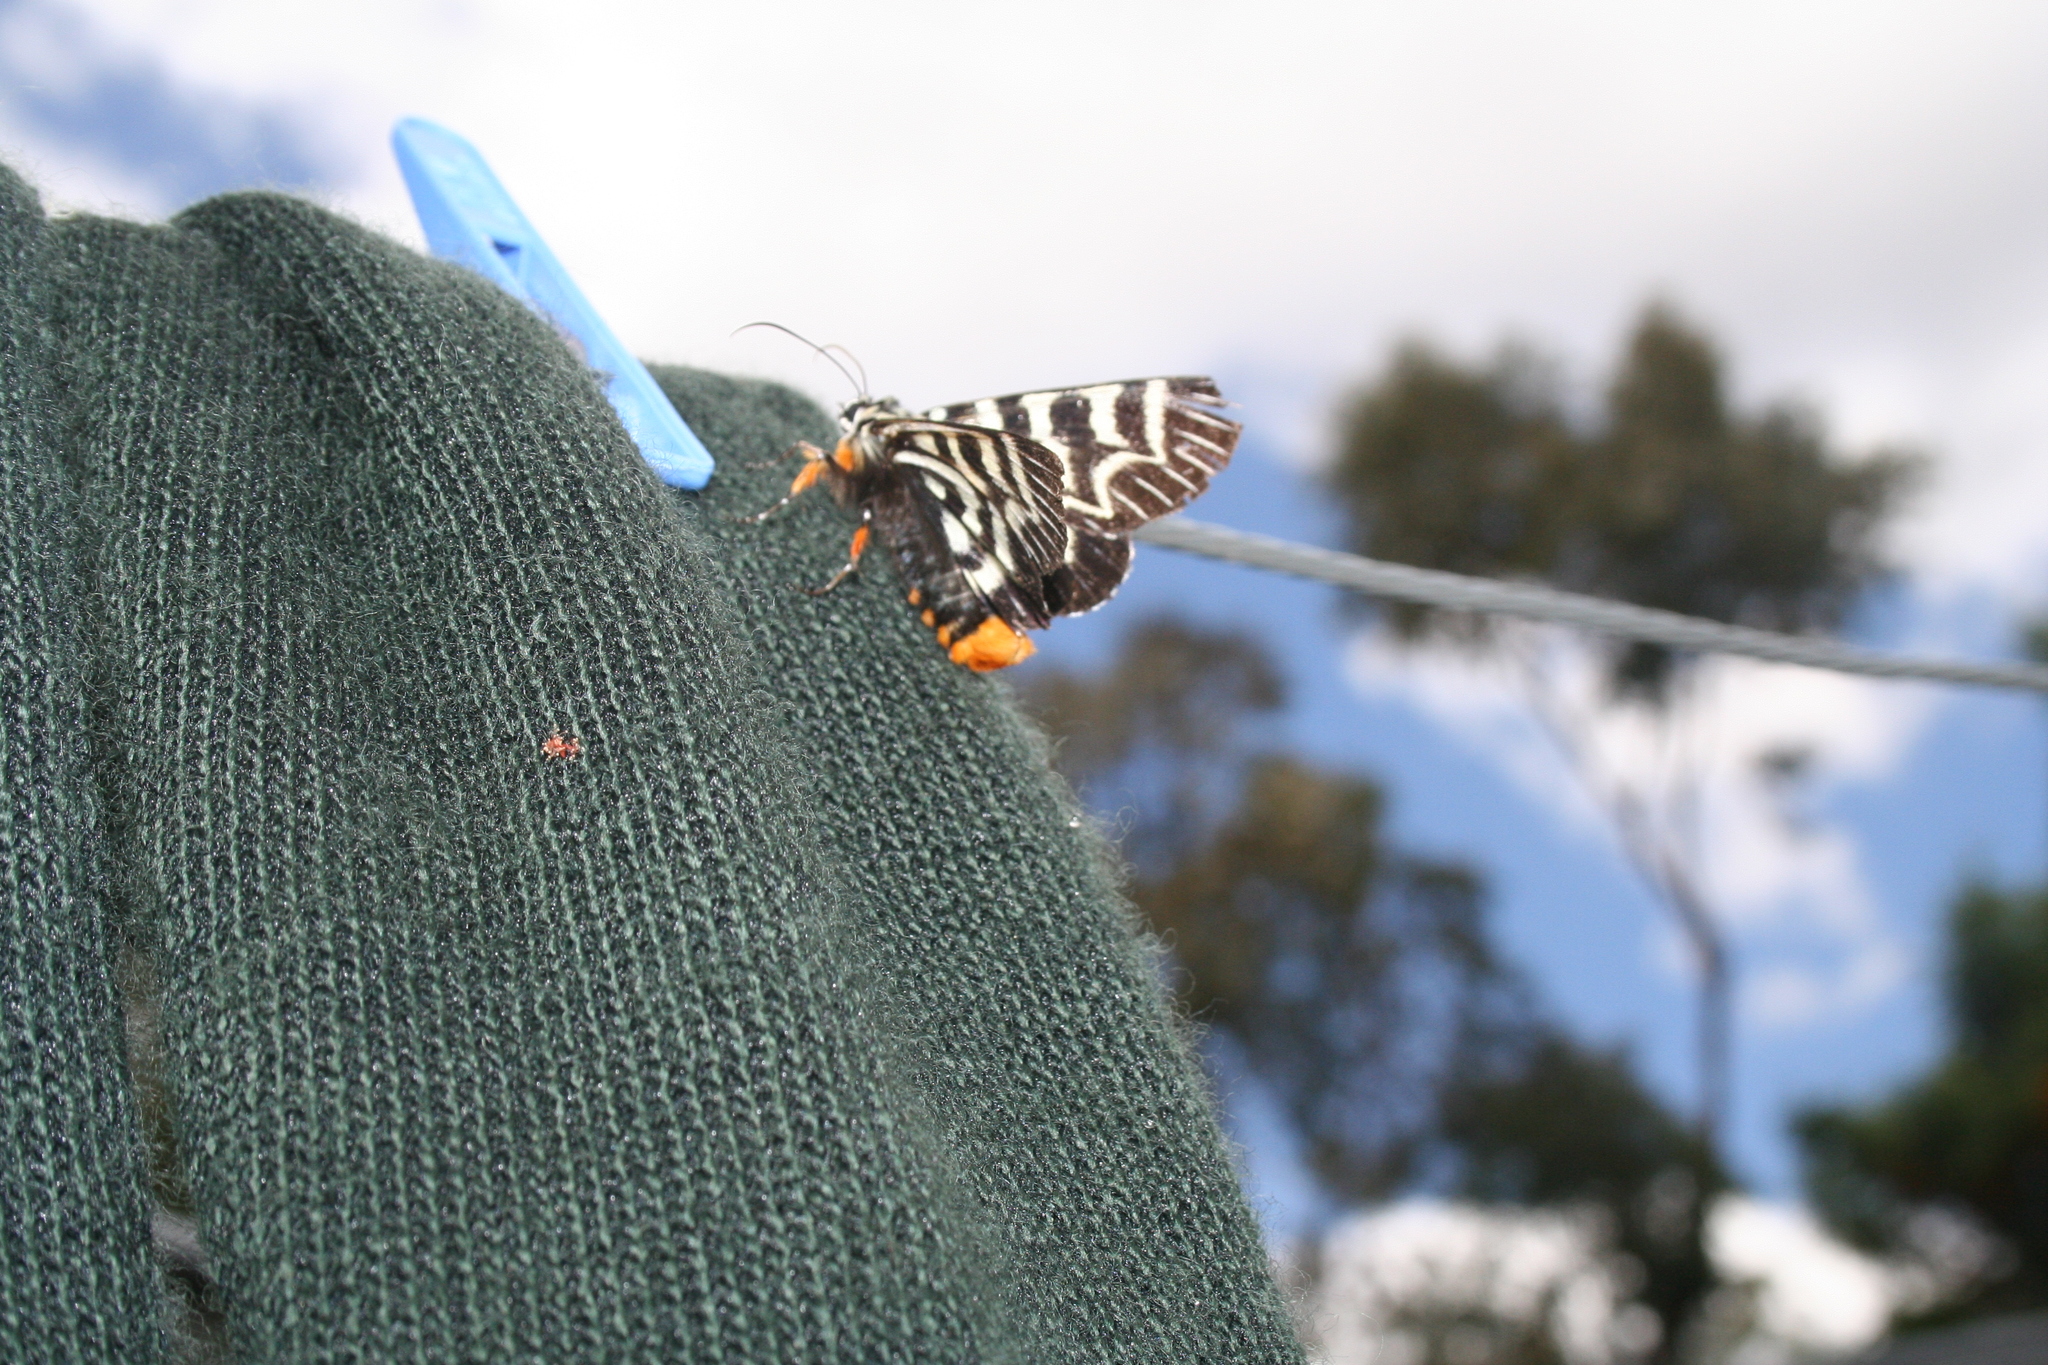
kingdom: Animalia
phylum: Arthropoda
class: Insecta
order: Lepidoptera
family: Noctuidae
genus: Comocrus
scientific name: Comocrus behri
